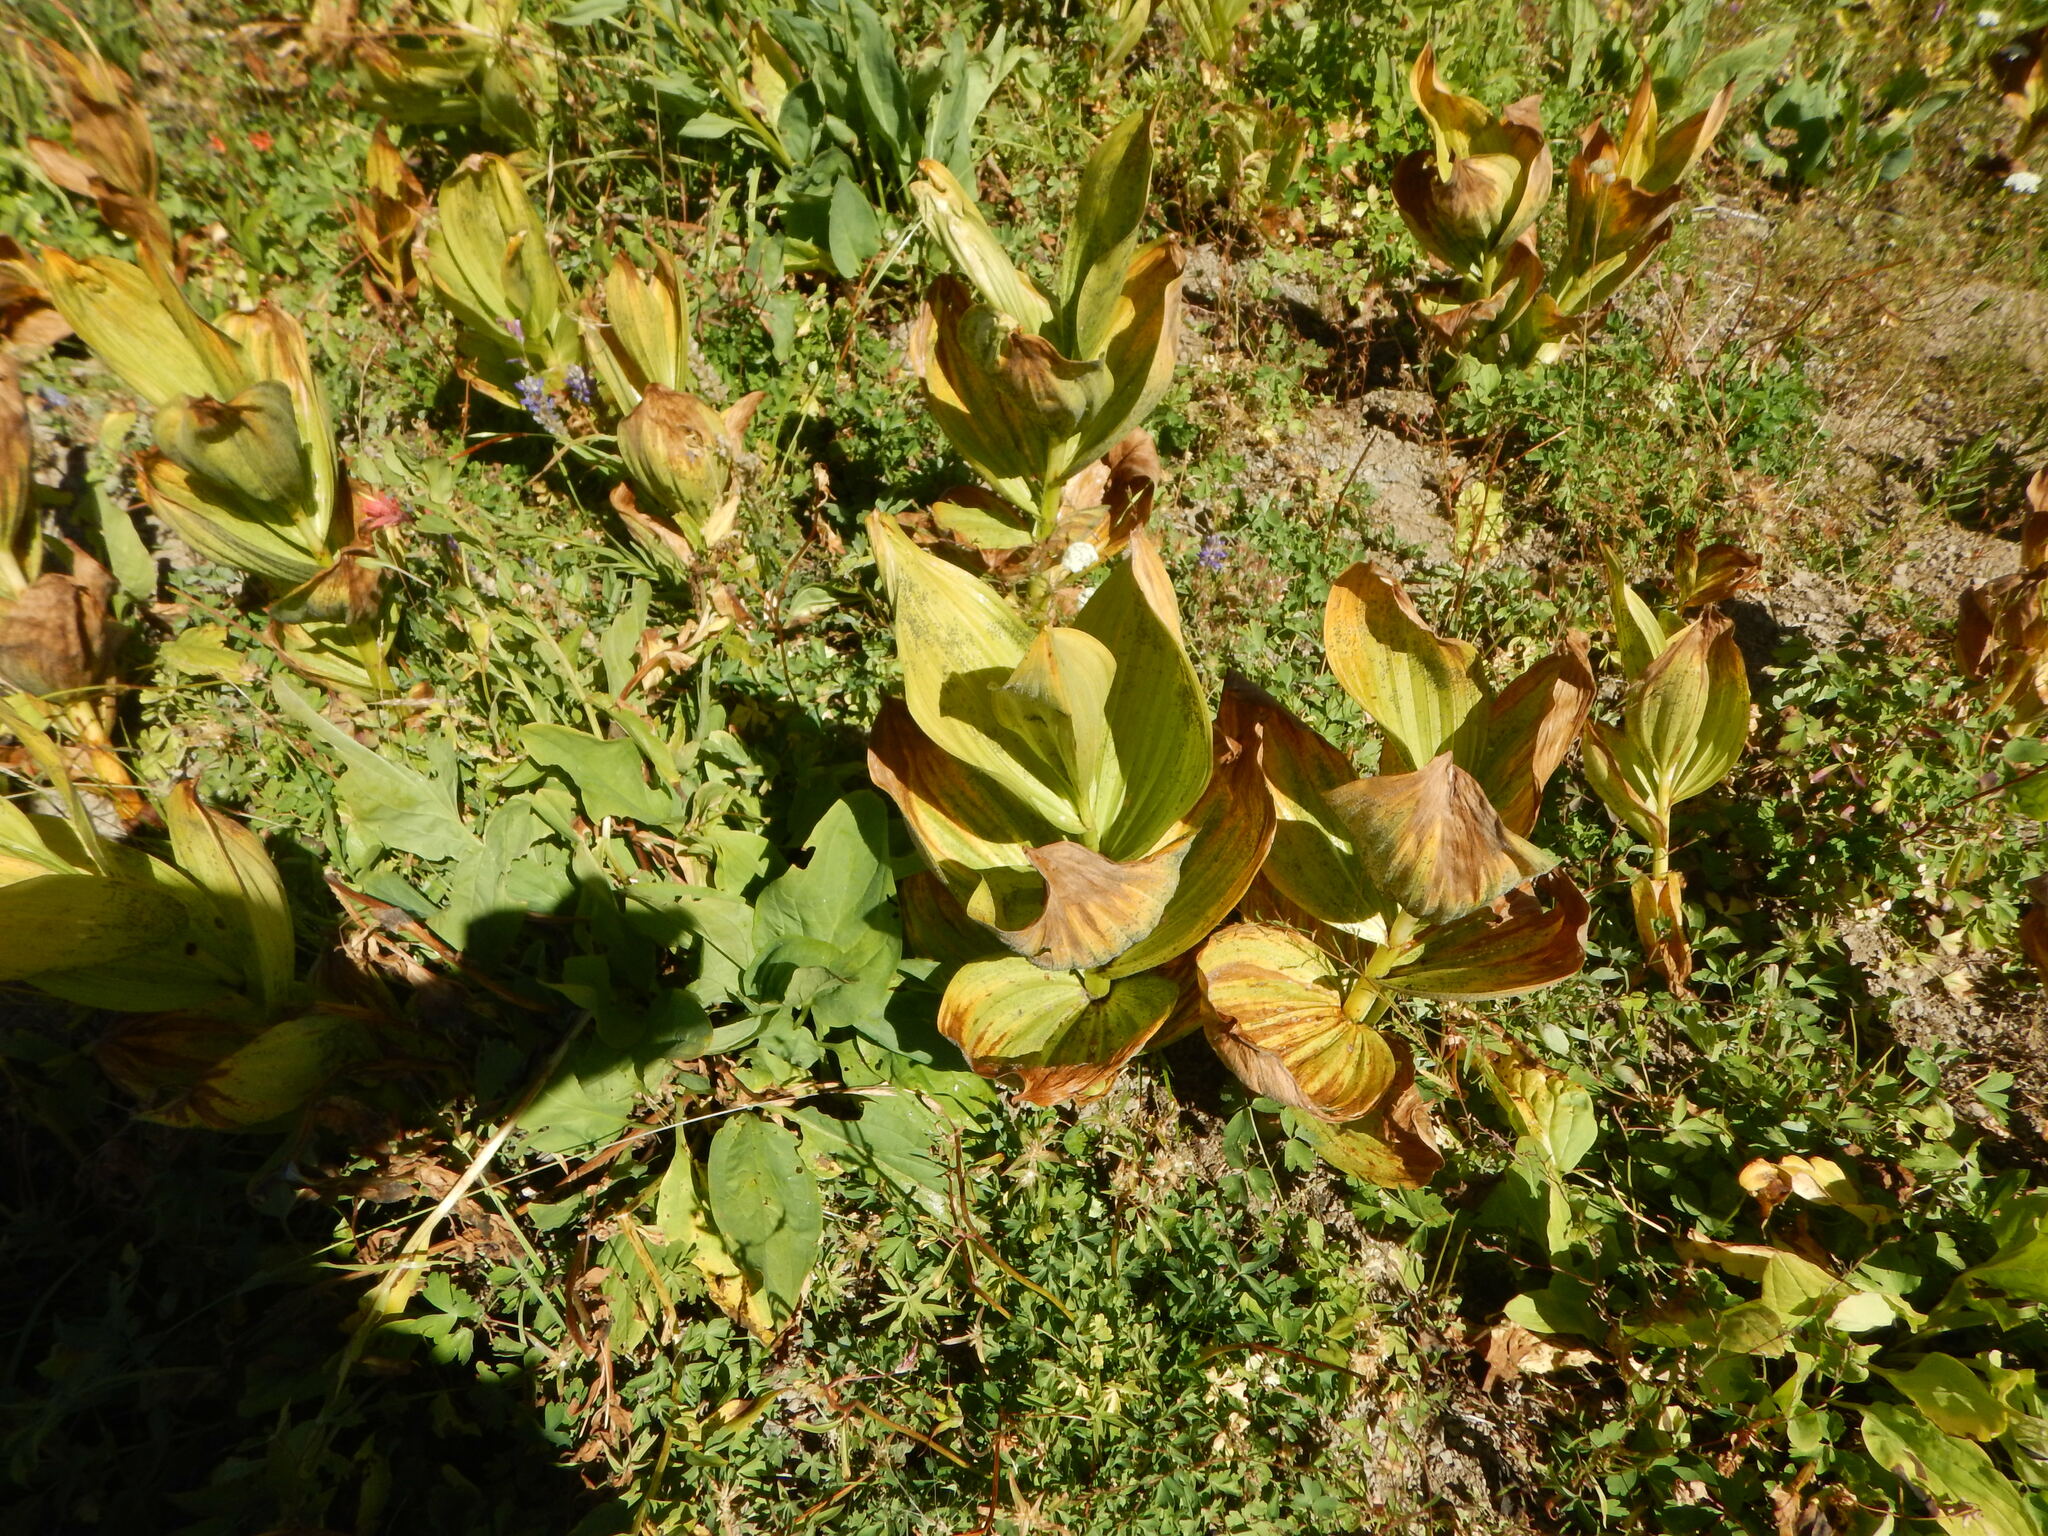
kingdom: Plantae
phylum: Tracheophyta
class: Liliopsida
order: Liliales
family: Melanthiaceae
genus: Veratrum
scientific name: Veratrum californicum
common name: California veratrum
